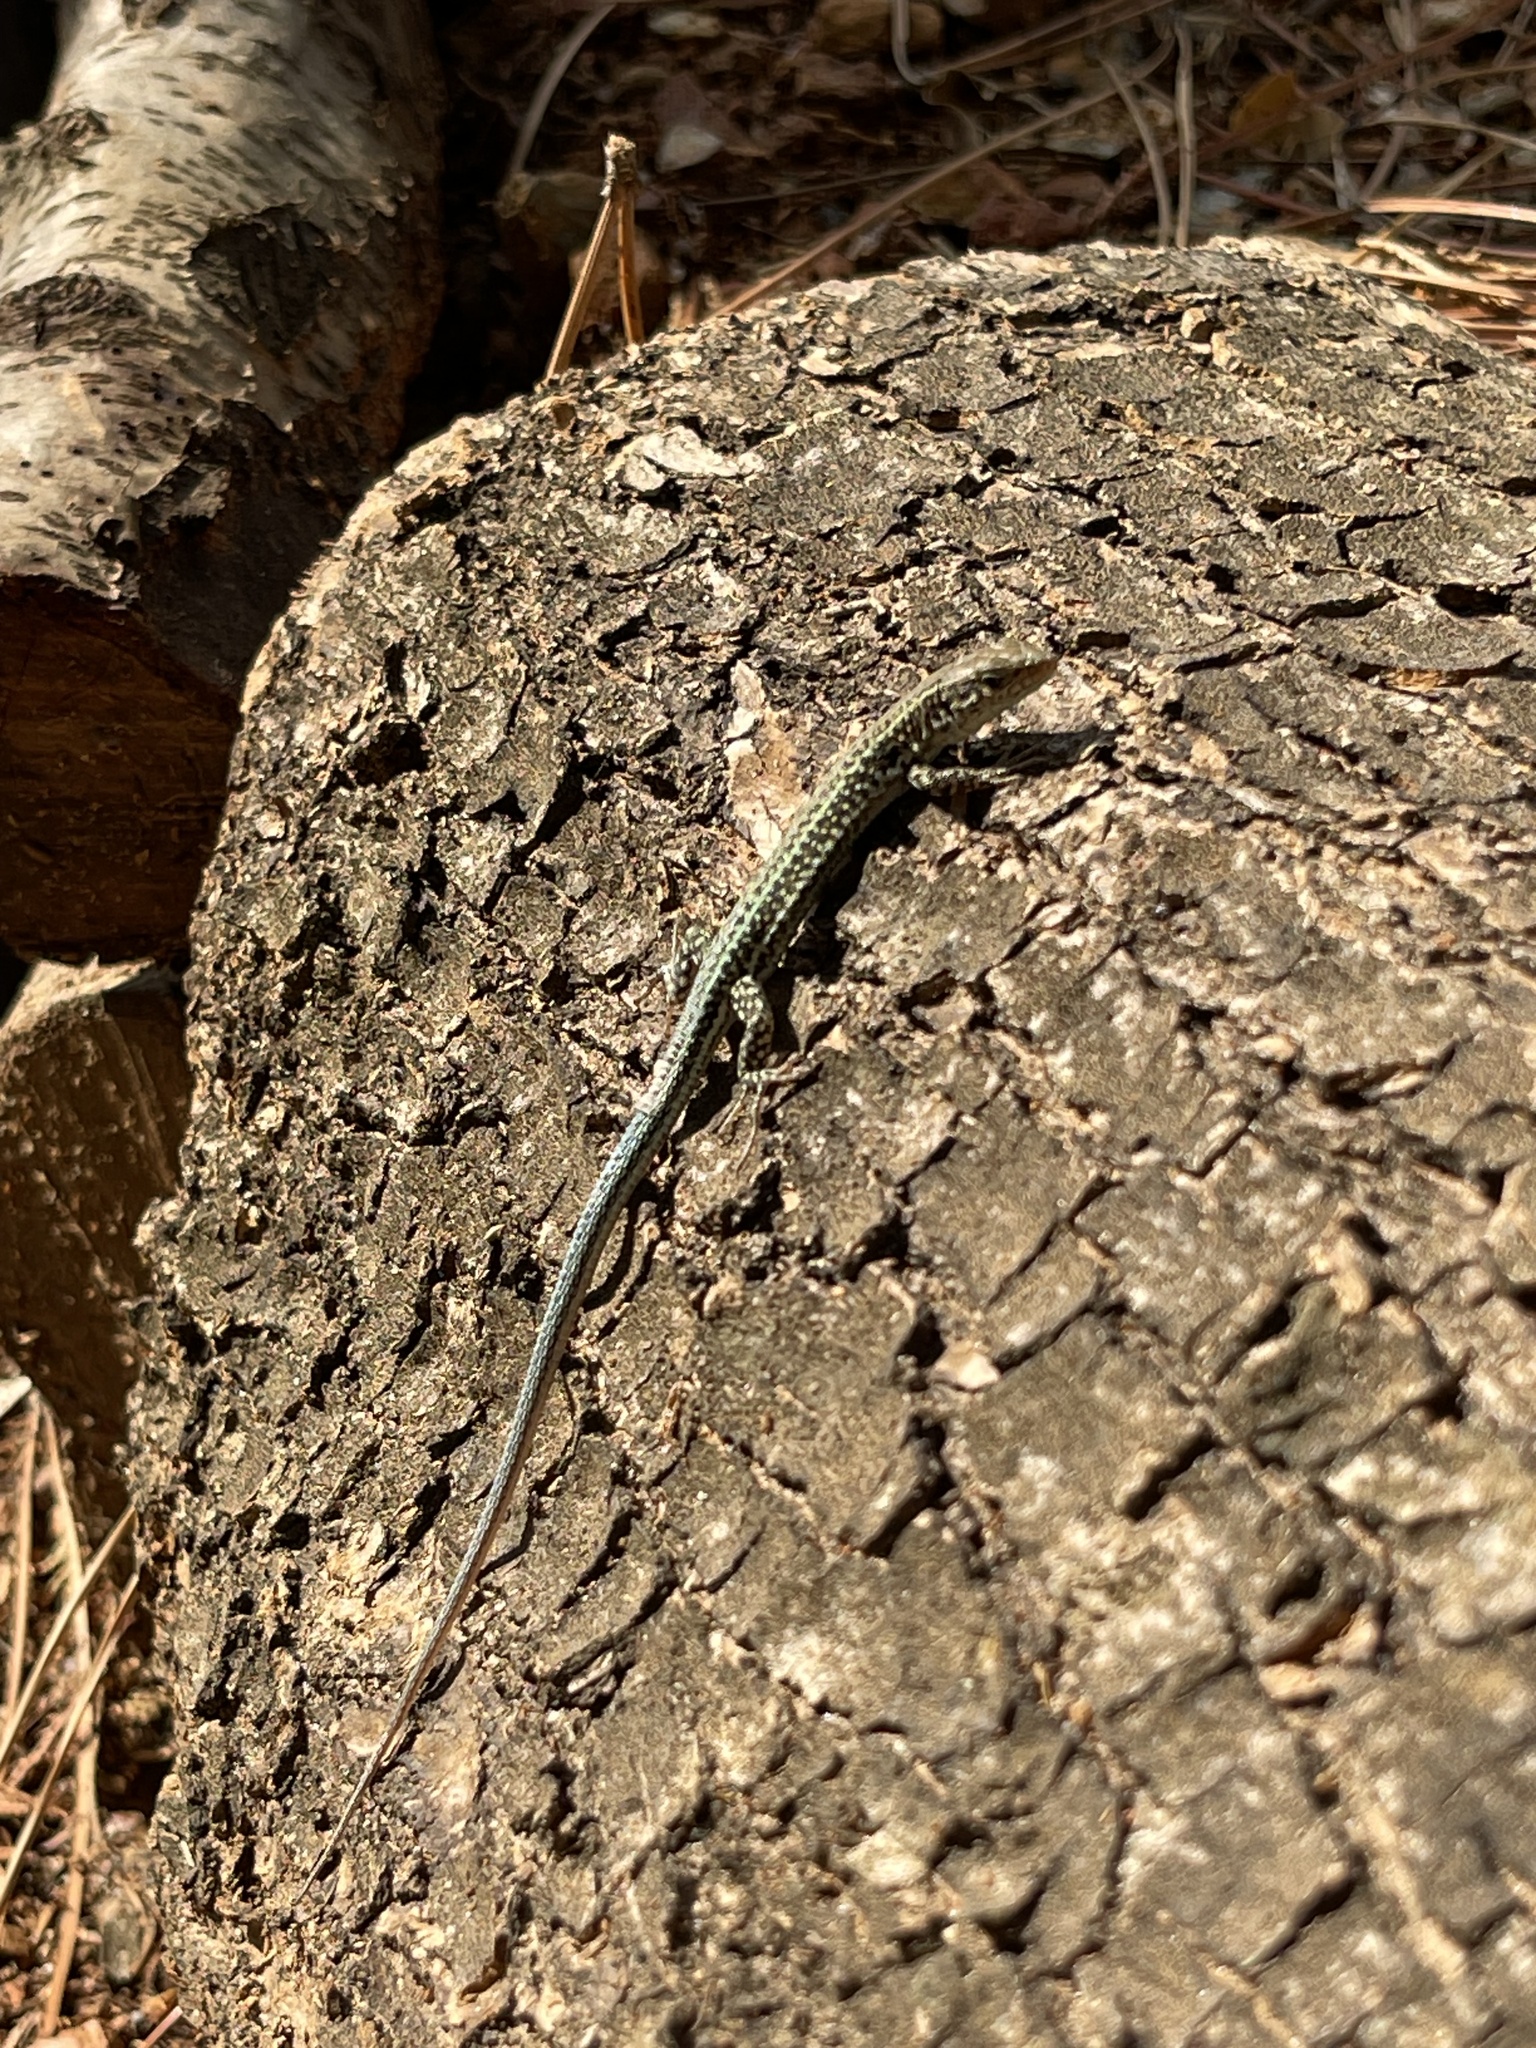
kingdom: Animalia
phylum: Chordata
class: Squamata
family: Lacertidae
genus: Podarcis
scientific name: Podarcis cretensis
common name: Cretan wall lizard
